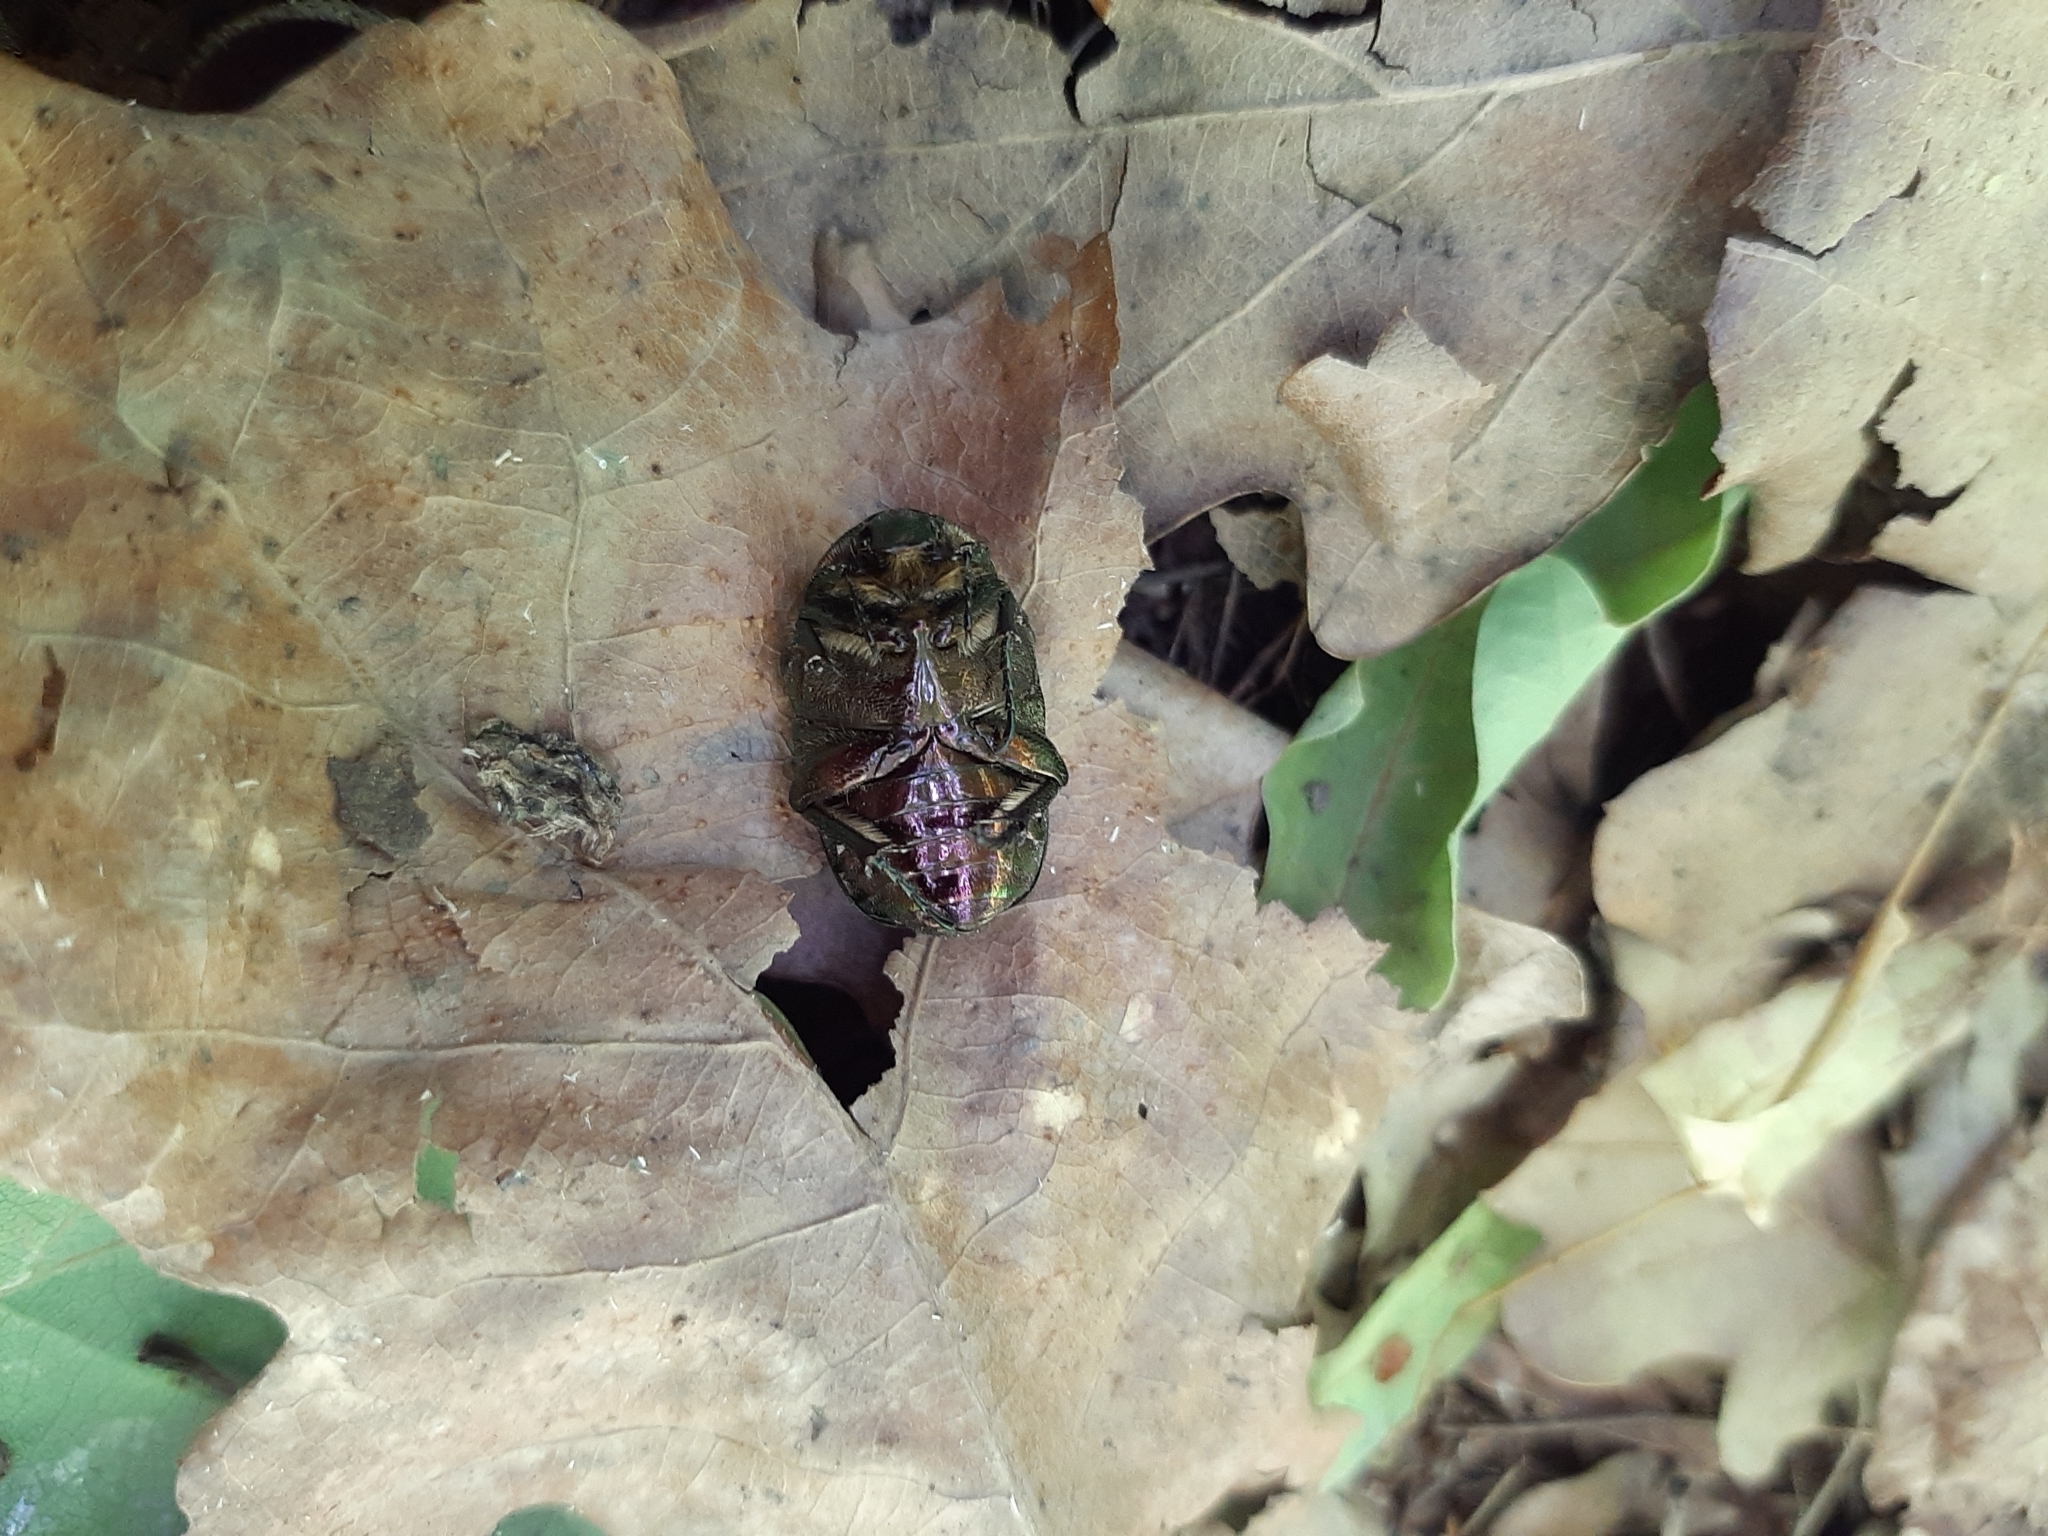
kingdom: Animalia
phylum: Arthropoda
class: Insecta
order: Coleoptera
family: Scarabaeidae
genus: Cetonia
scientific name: Cetonia aurata
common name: Rose chafer
